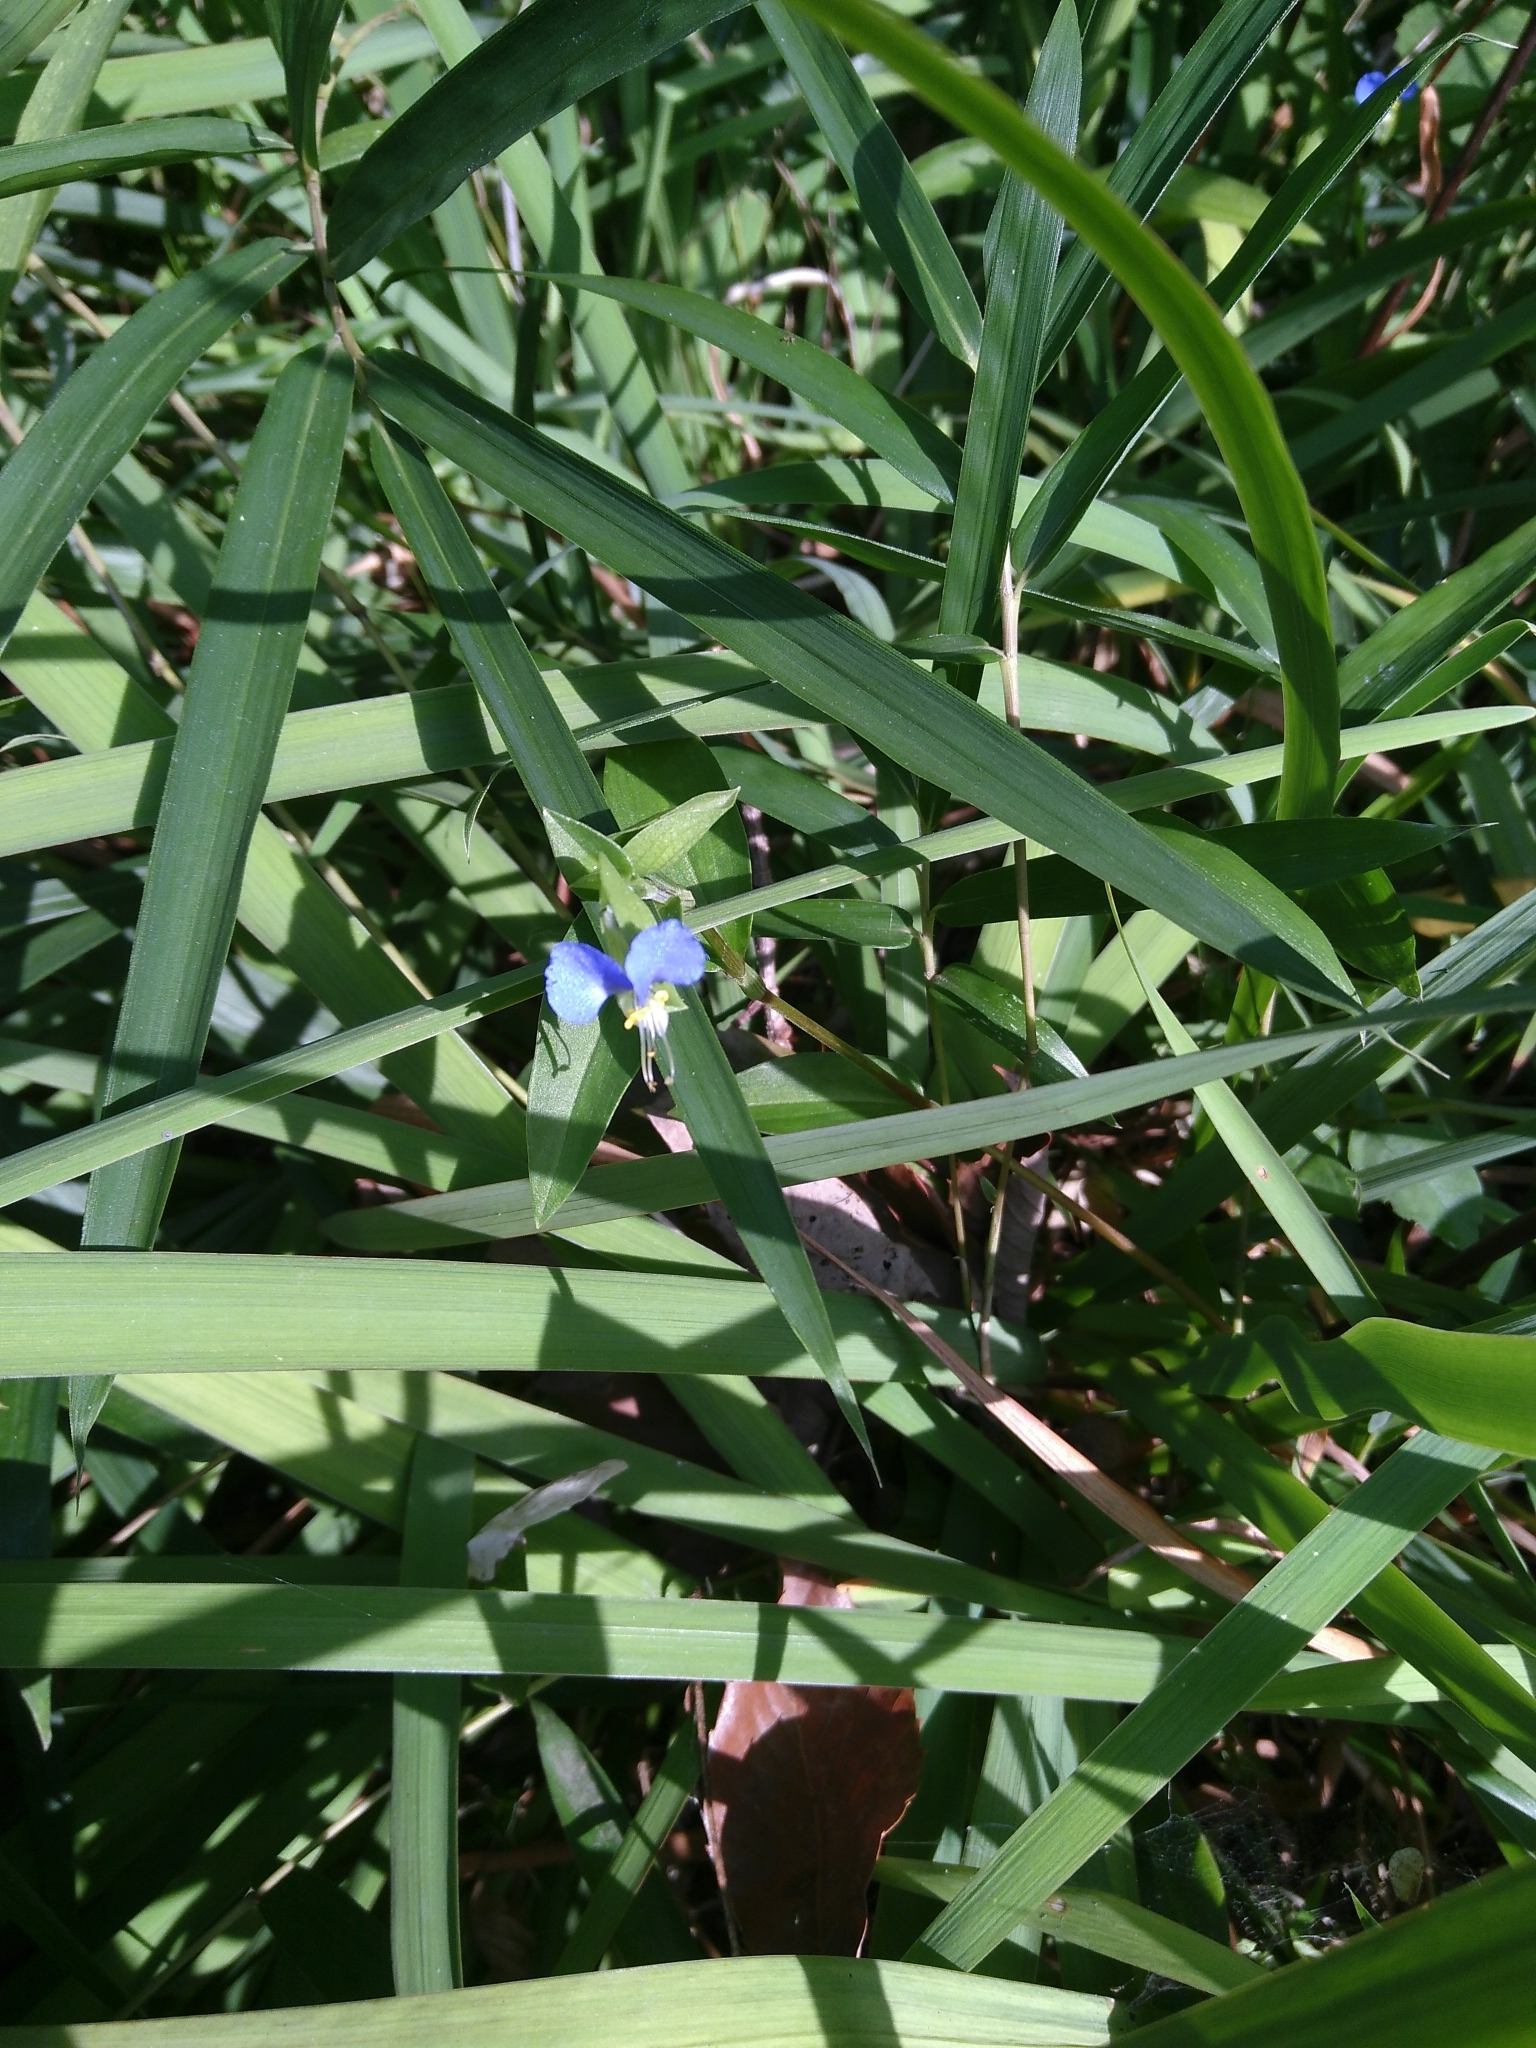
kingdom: Plantae
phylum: Tracheophyta
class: Liliopsida
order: Commelinales
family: Commelinaceae
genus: Commelina
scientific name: Commelina communis
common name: Asiatic dayflower
